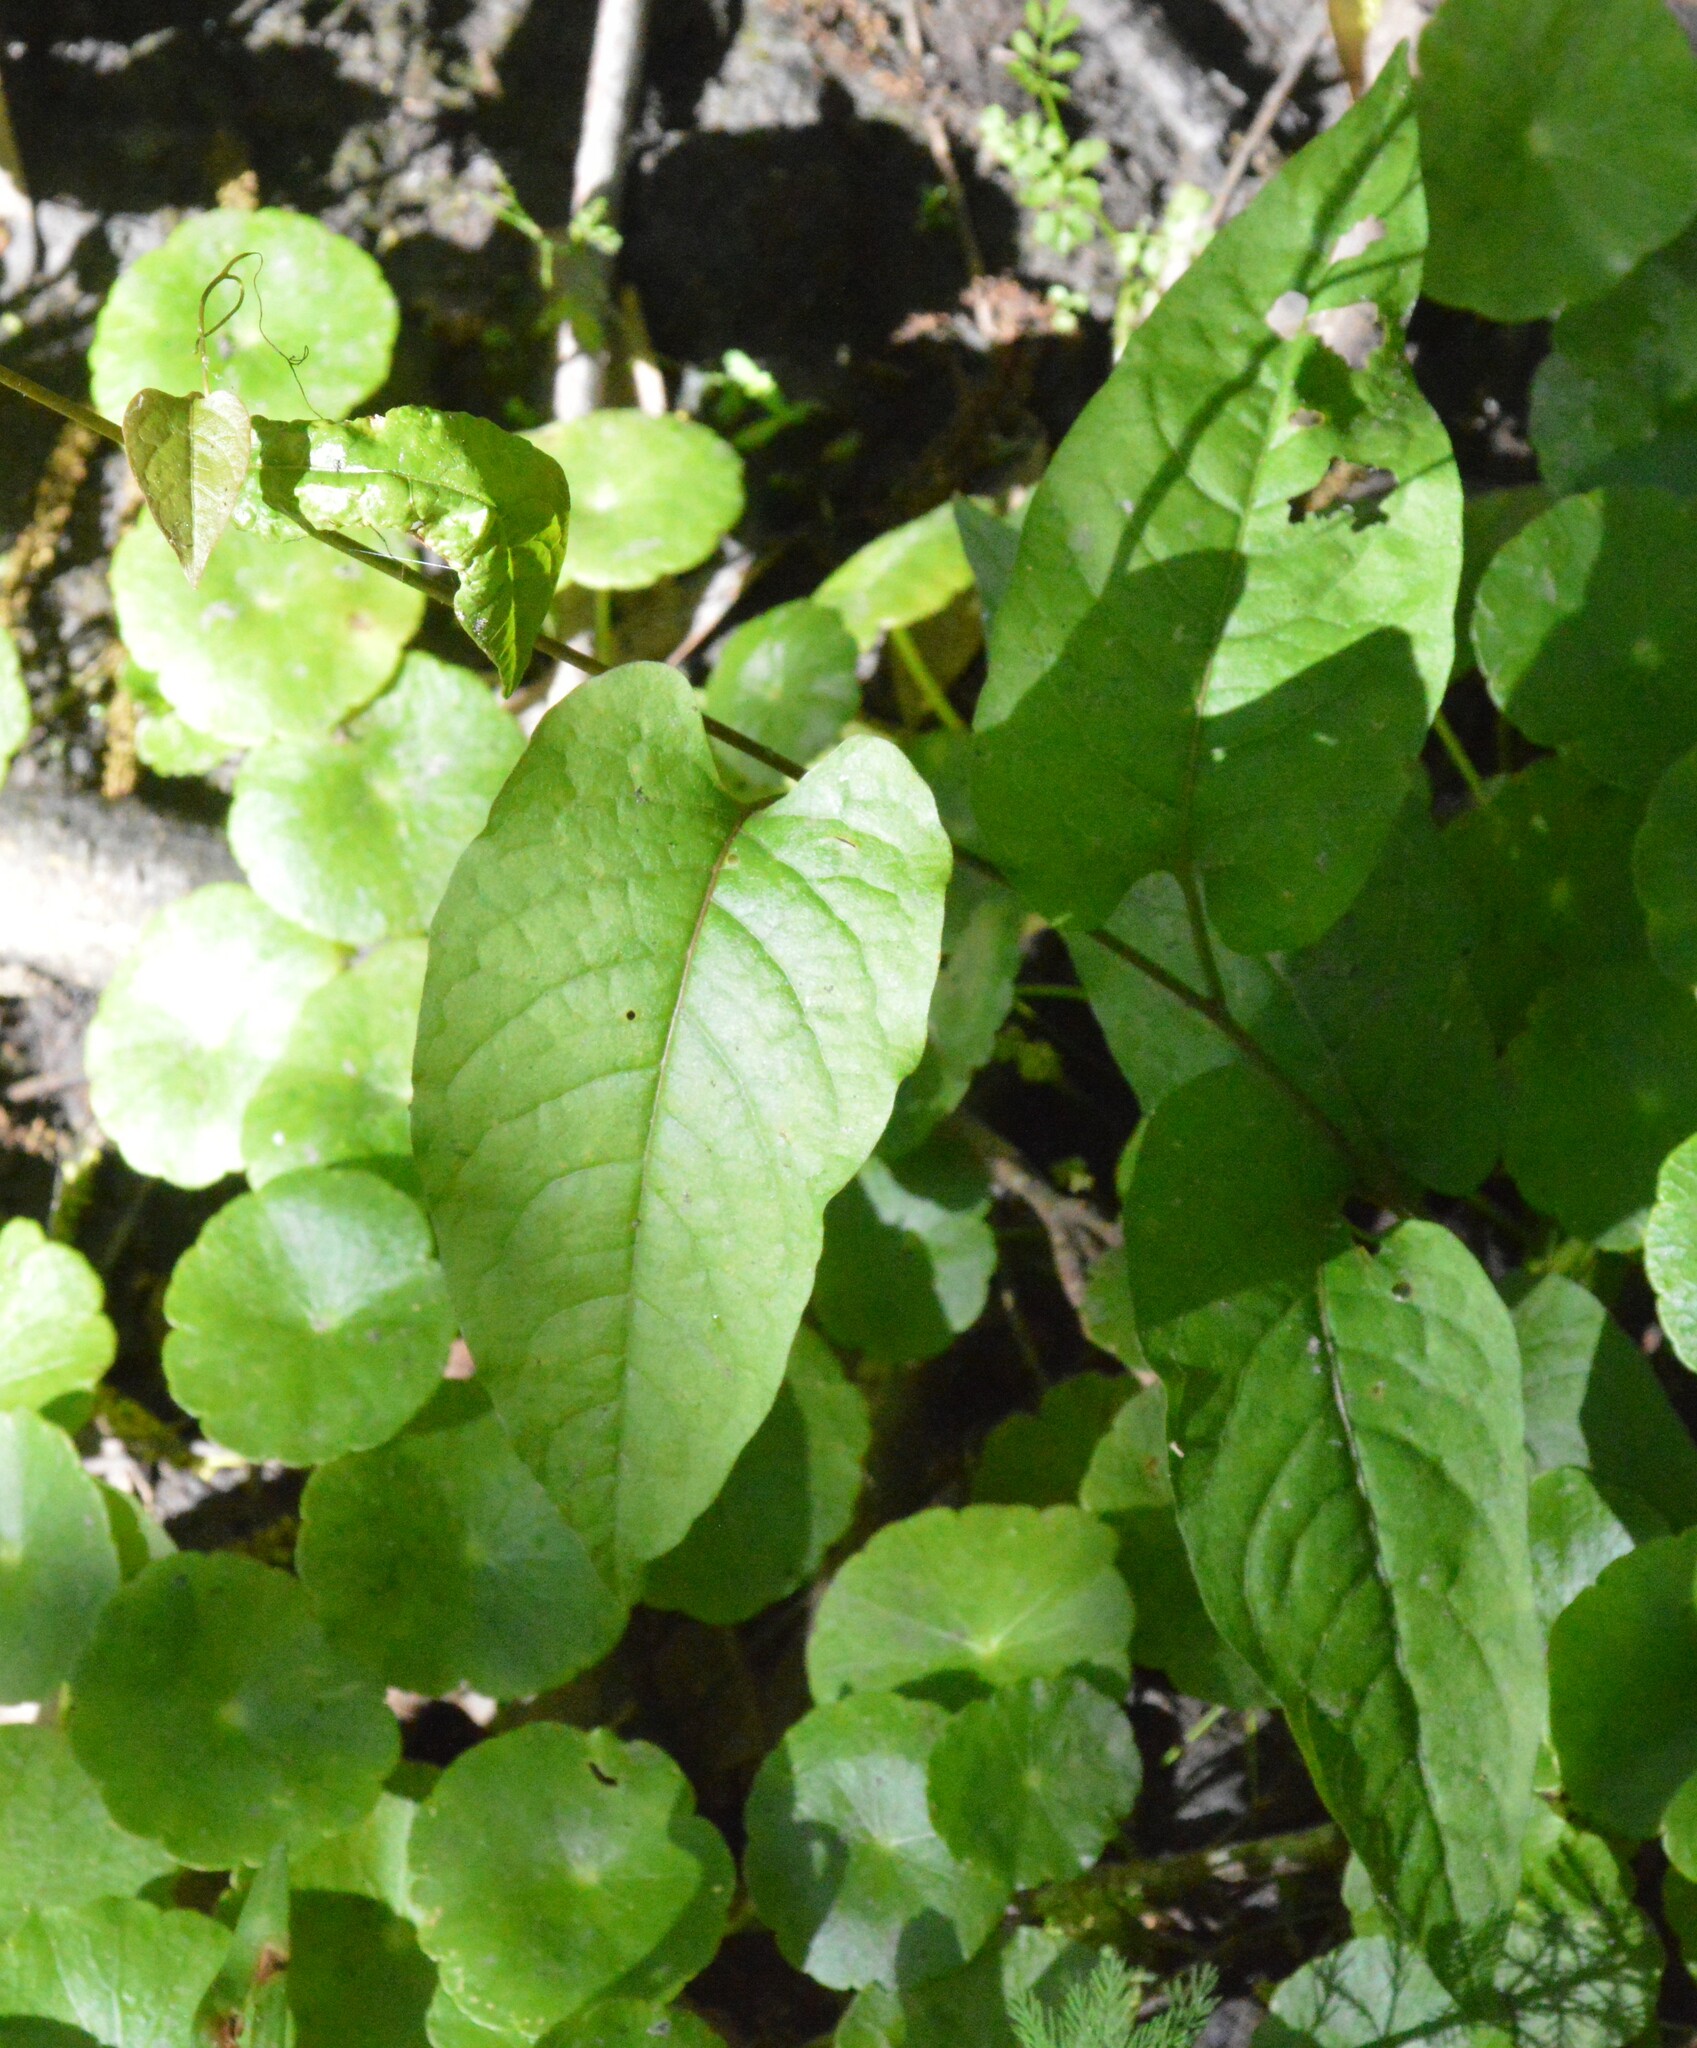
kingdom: Plantae
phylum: Tracheophyta
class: Magnoliopsida
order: Caryophyllales
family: Polygonaceae
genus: Brunnichia
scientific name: Brunnichia ovata
